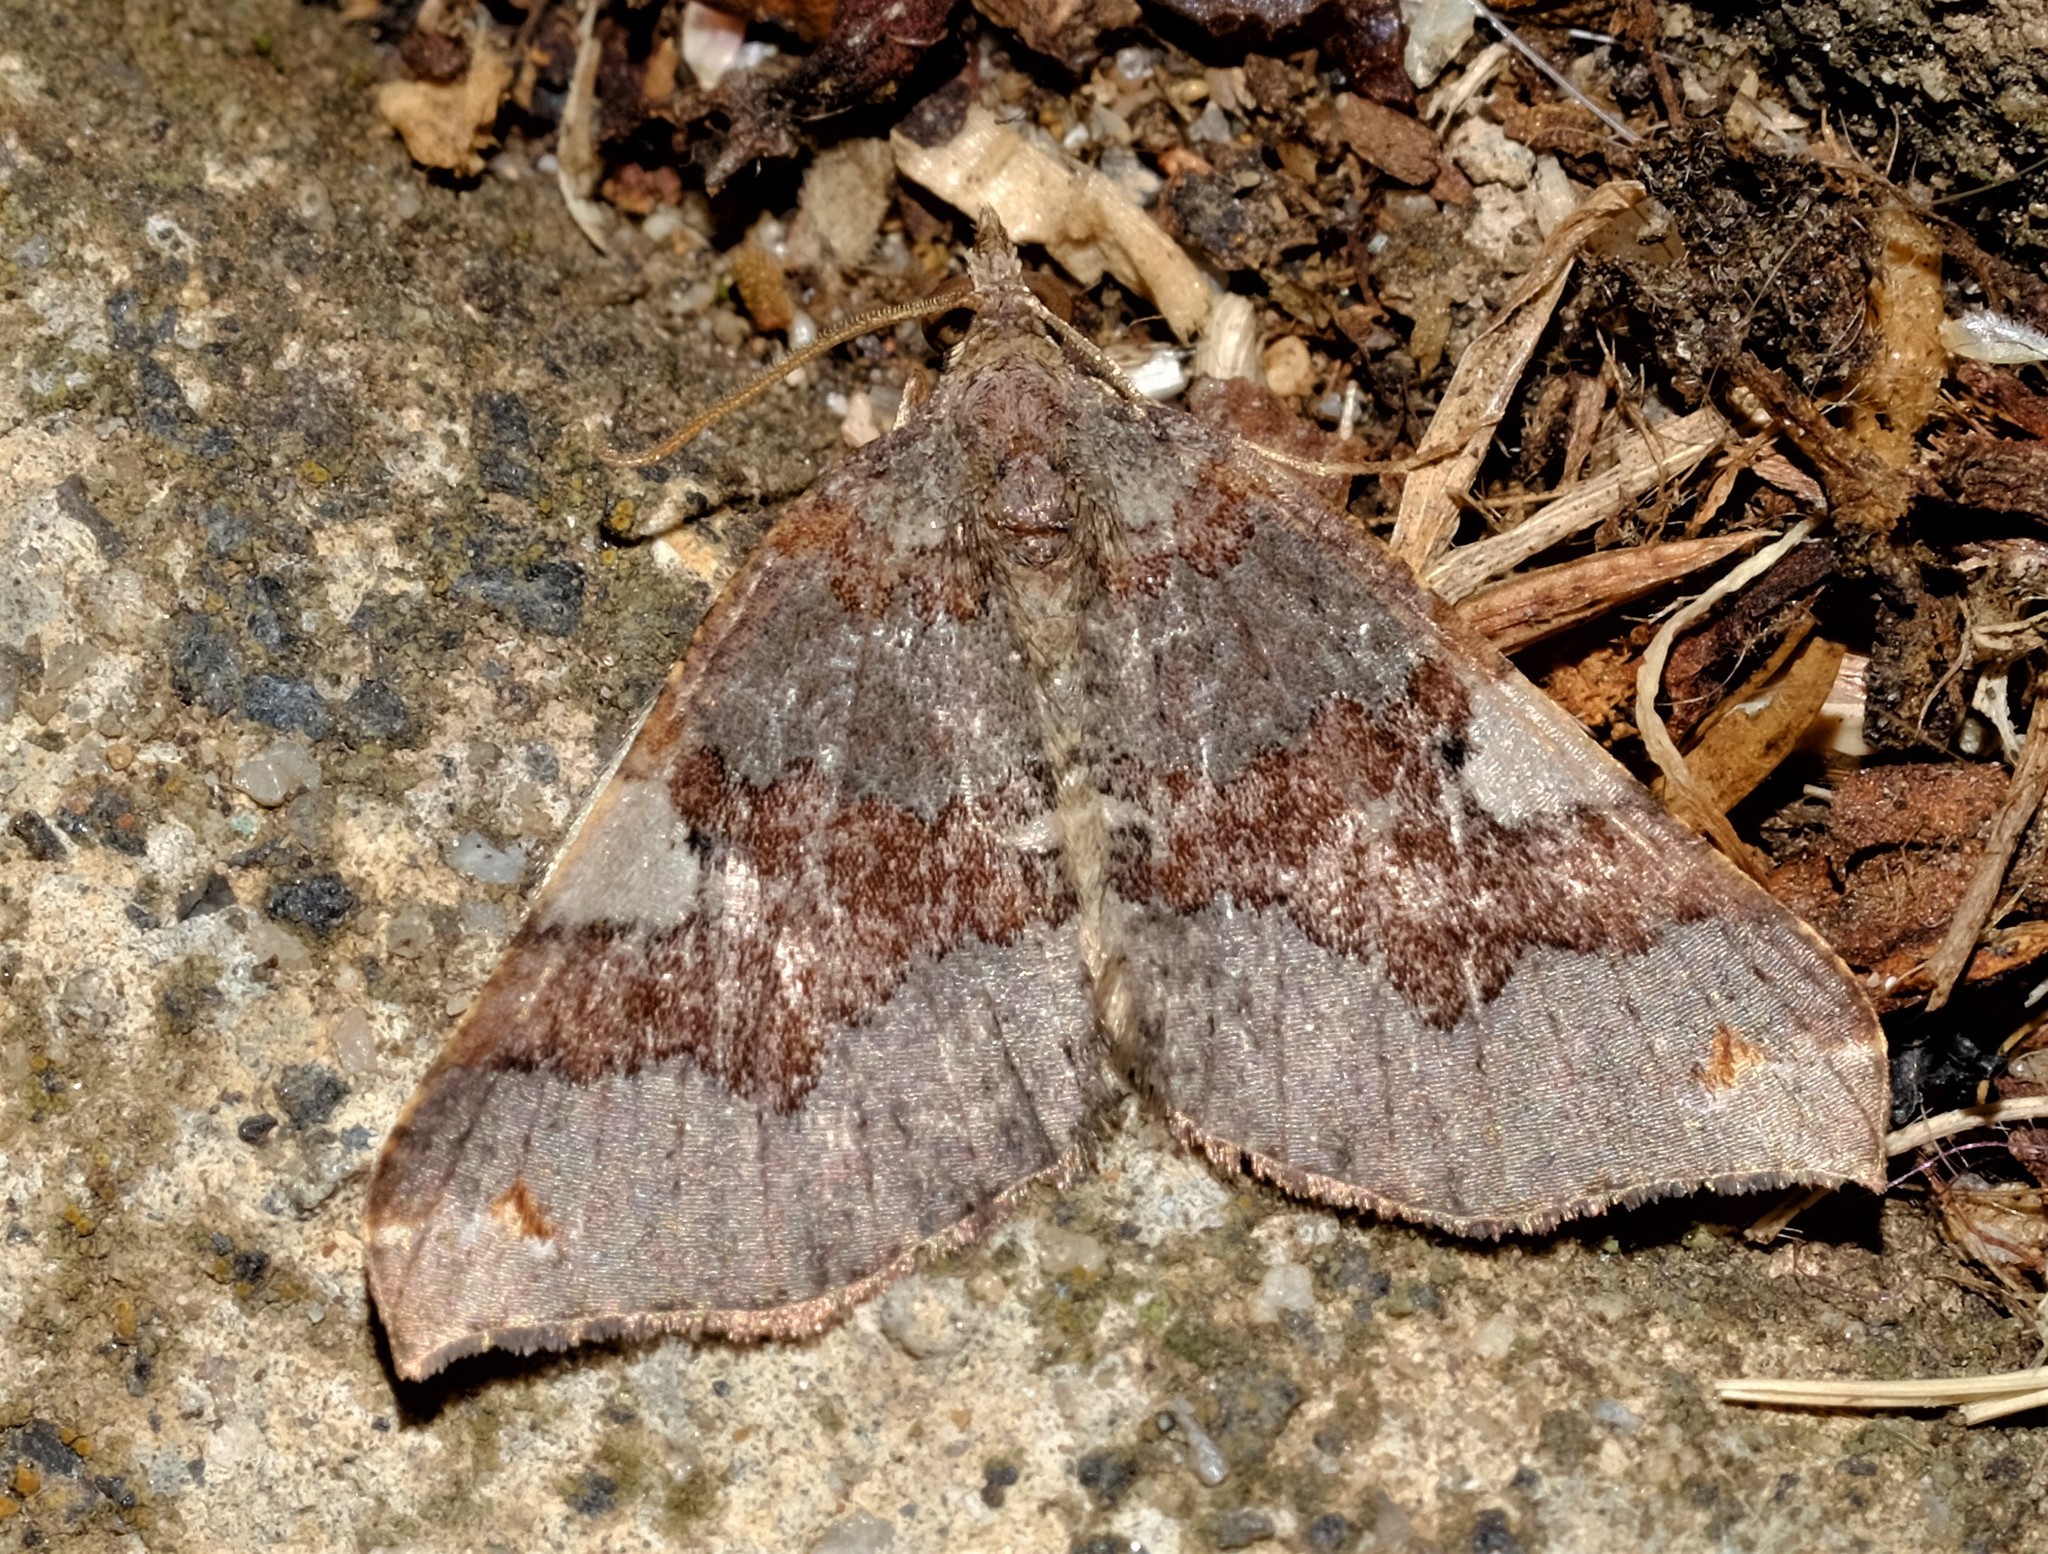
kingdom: Animalia
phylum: Arthropoda
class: Insecta
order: Lepidoptera
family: Geometridae
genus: Anachloris
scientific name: Anachloris uncinata
